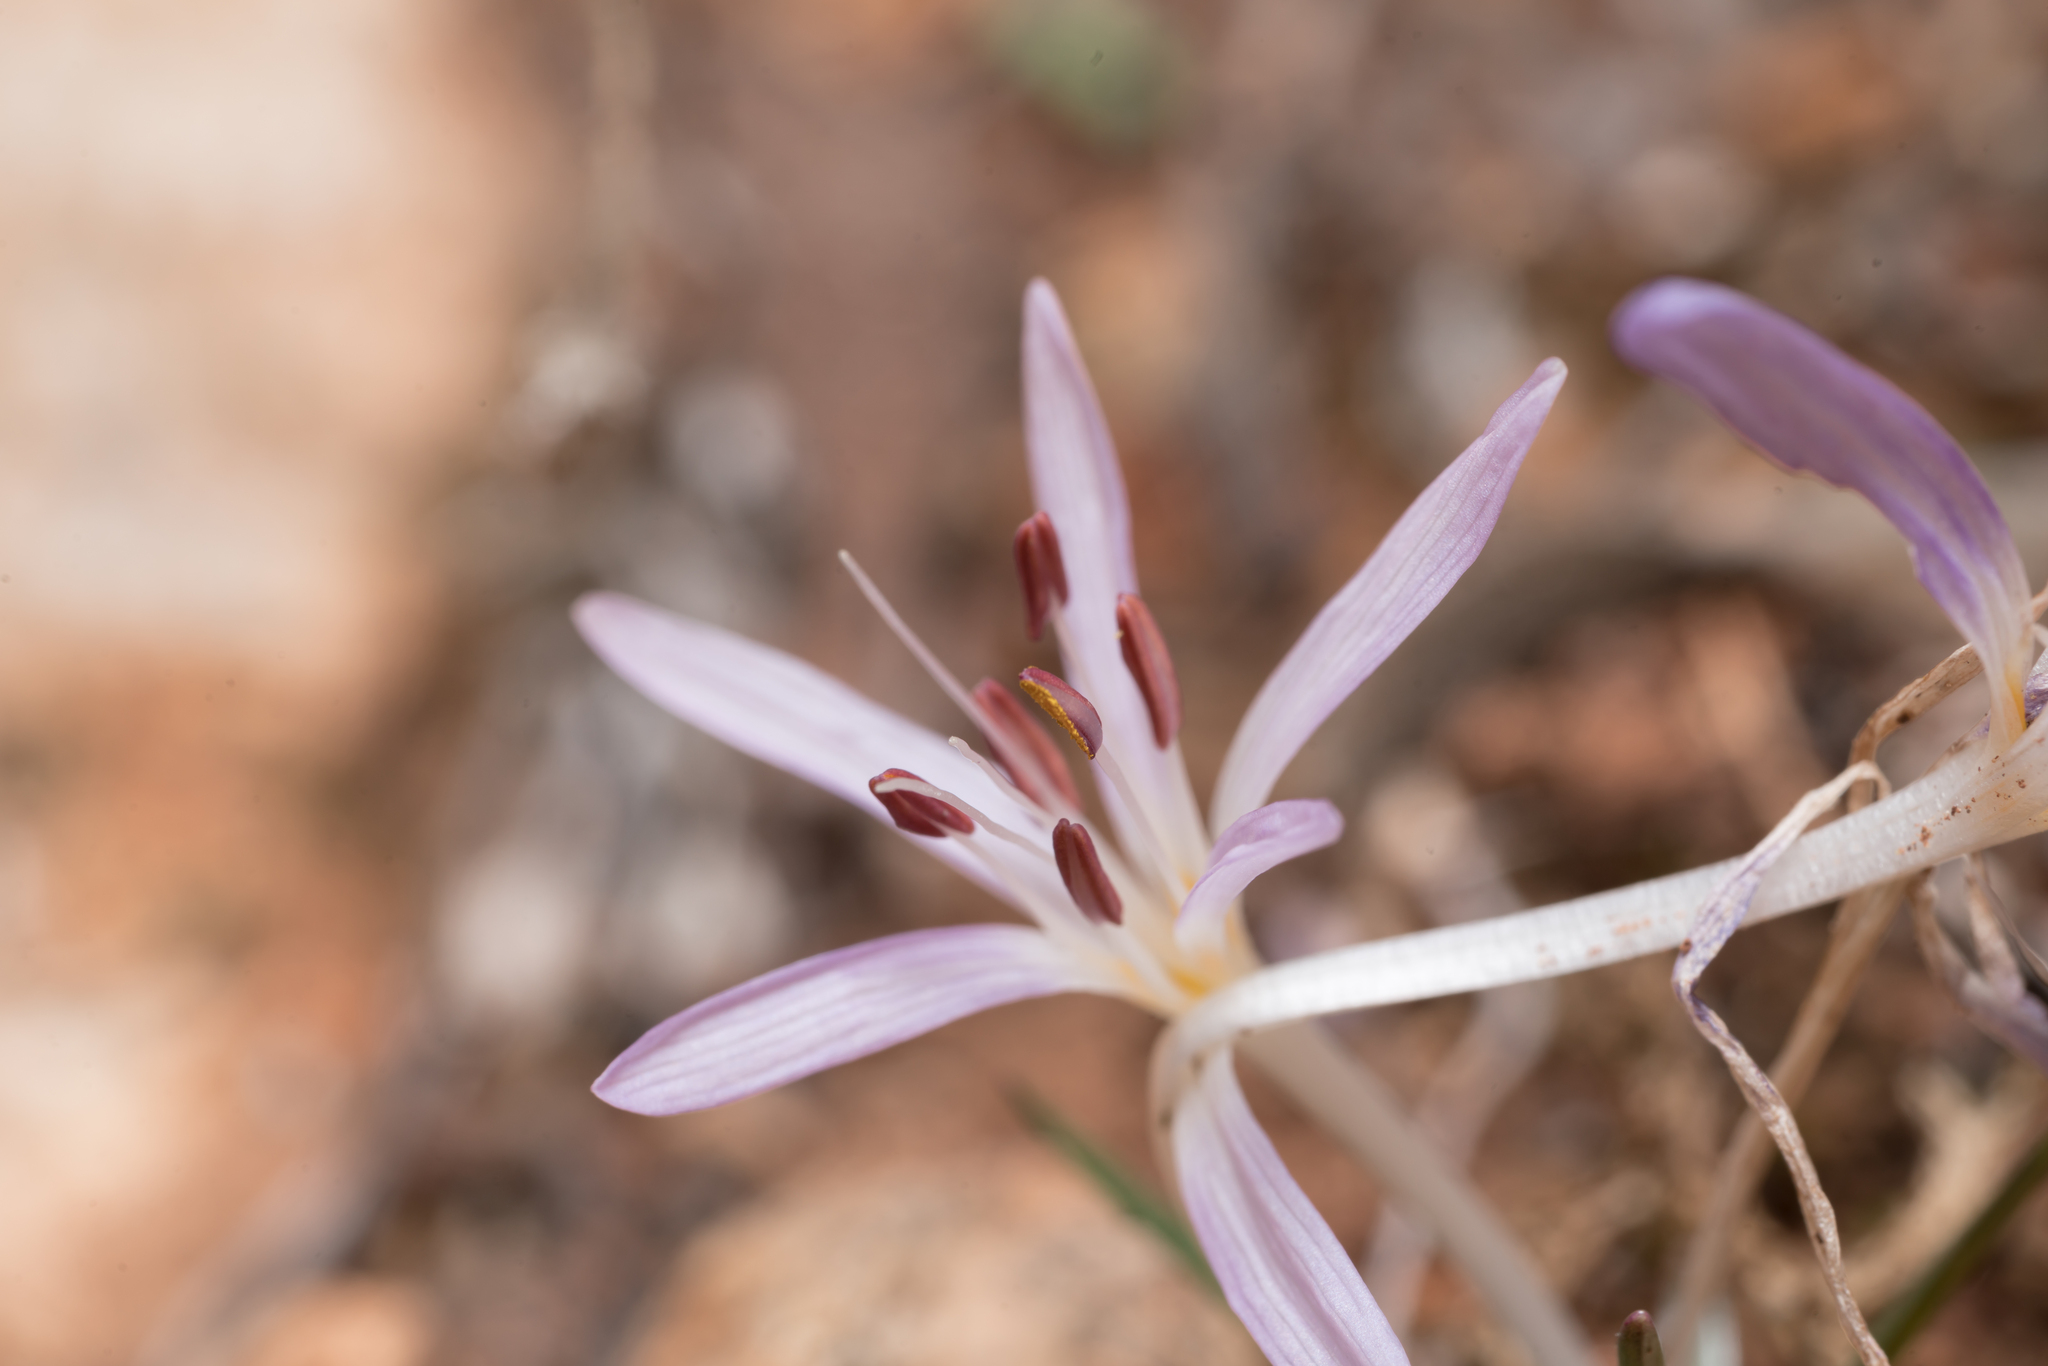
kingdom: Plantae
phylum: Tracheophyta
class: Liliopsida
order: Liliales
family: Colchicaceae
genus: Colchicum
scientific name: Colchicum pusillum
